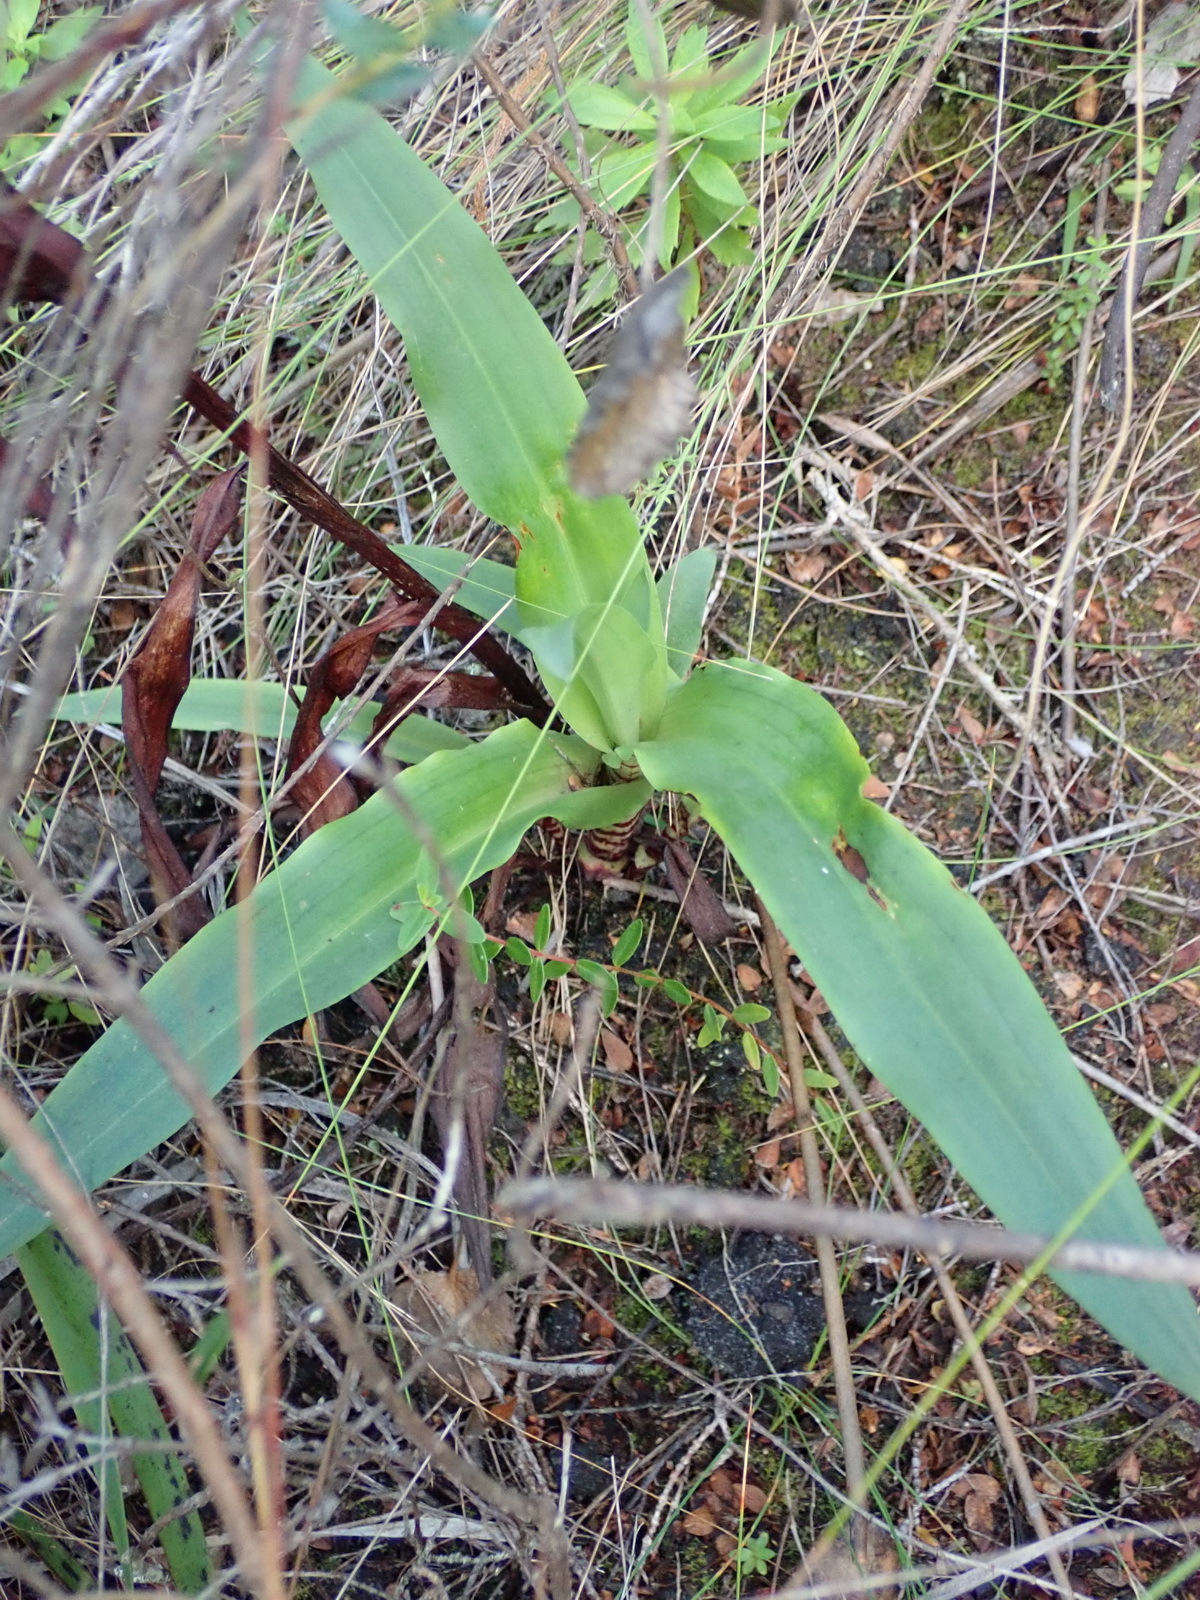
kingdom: Plantae
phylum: Tracheophyta
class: Liliopsida
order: Asparagales
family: Orchidaceae
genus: Disa
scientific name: Disa cornuta
